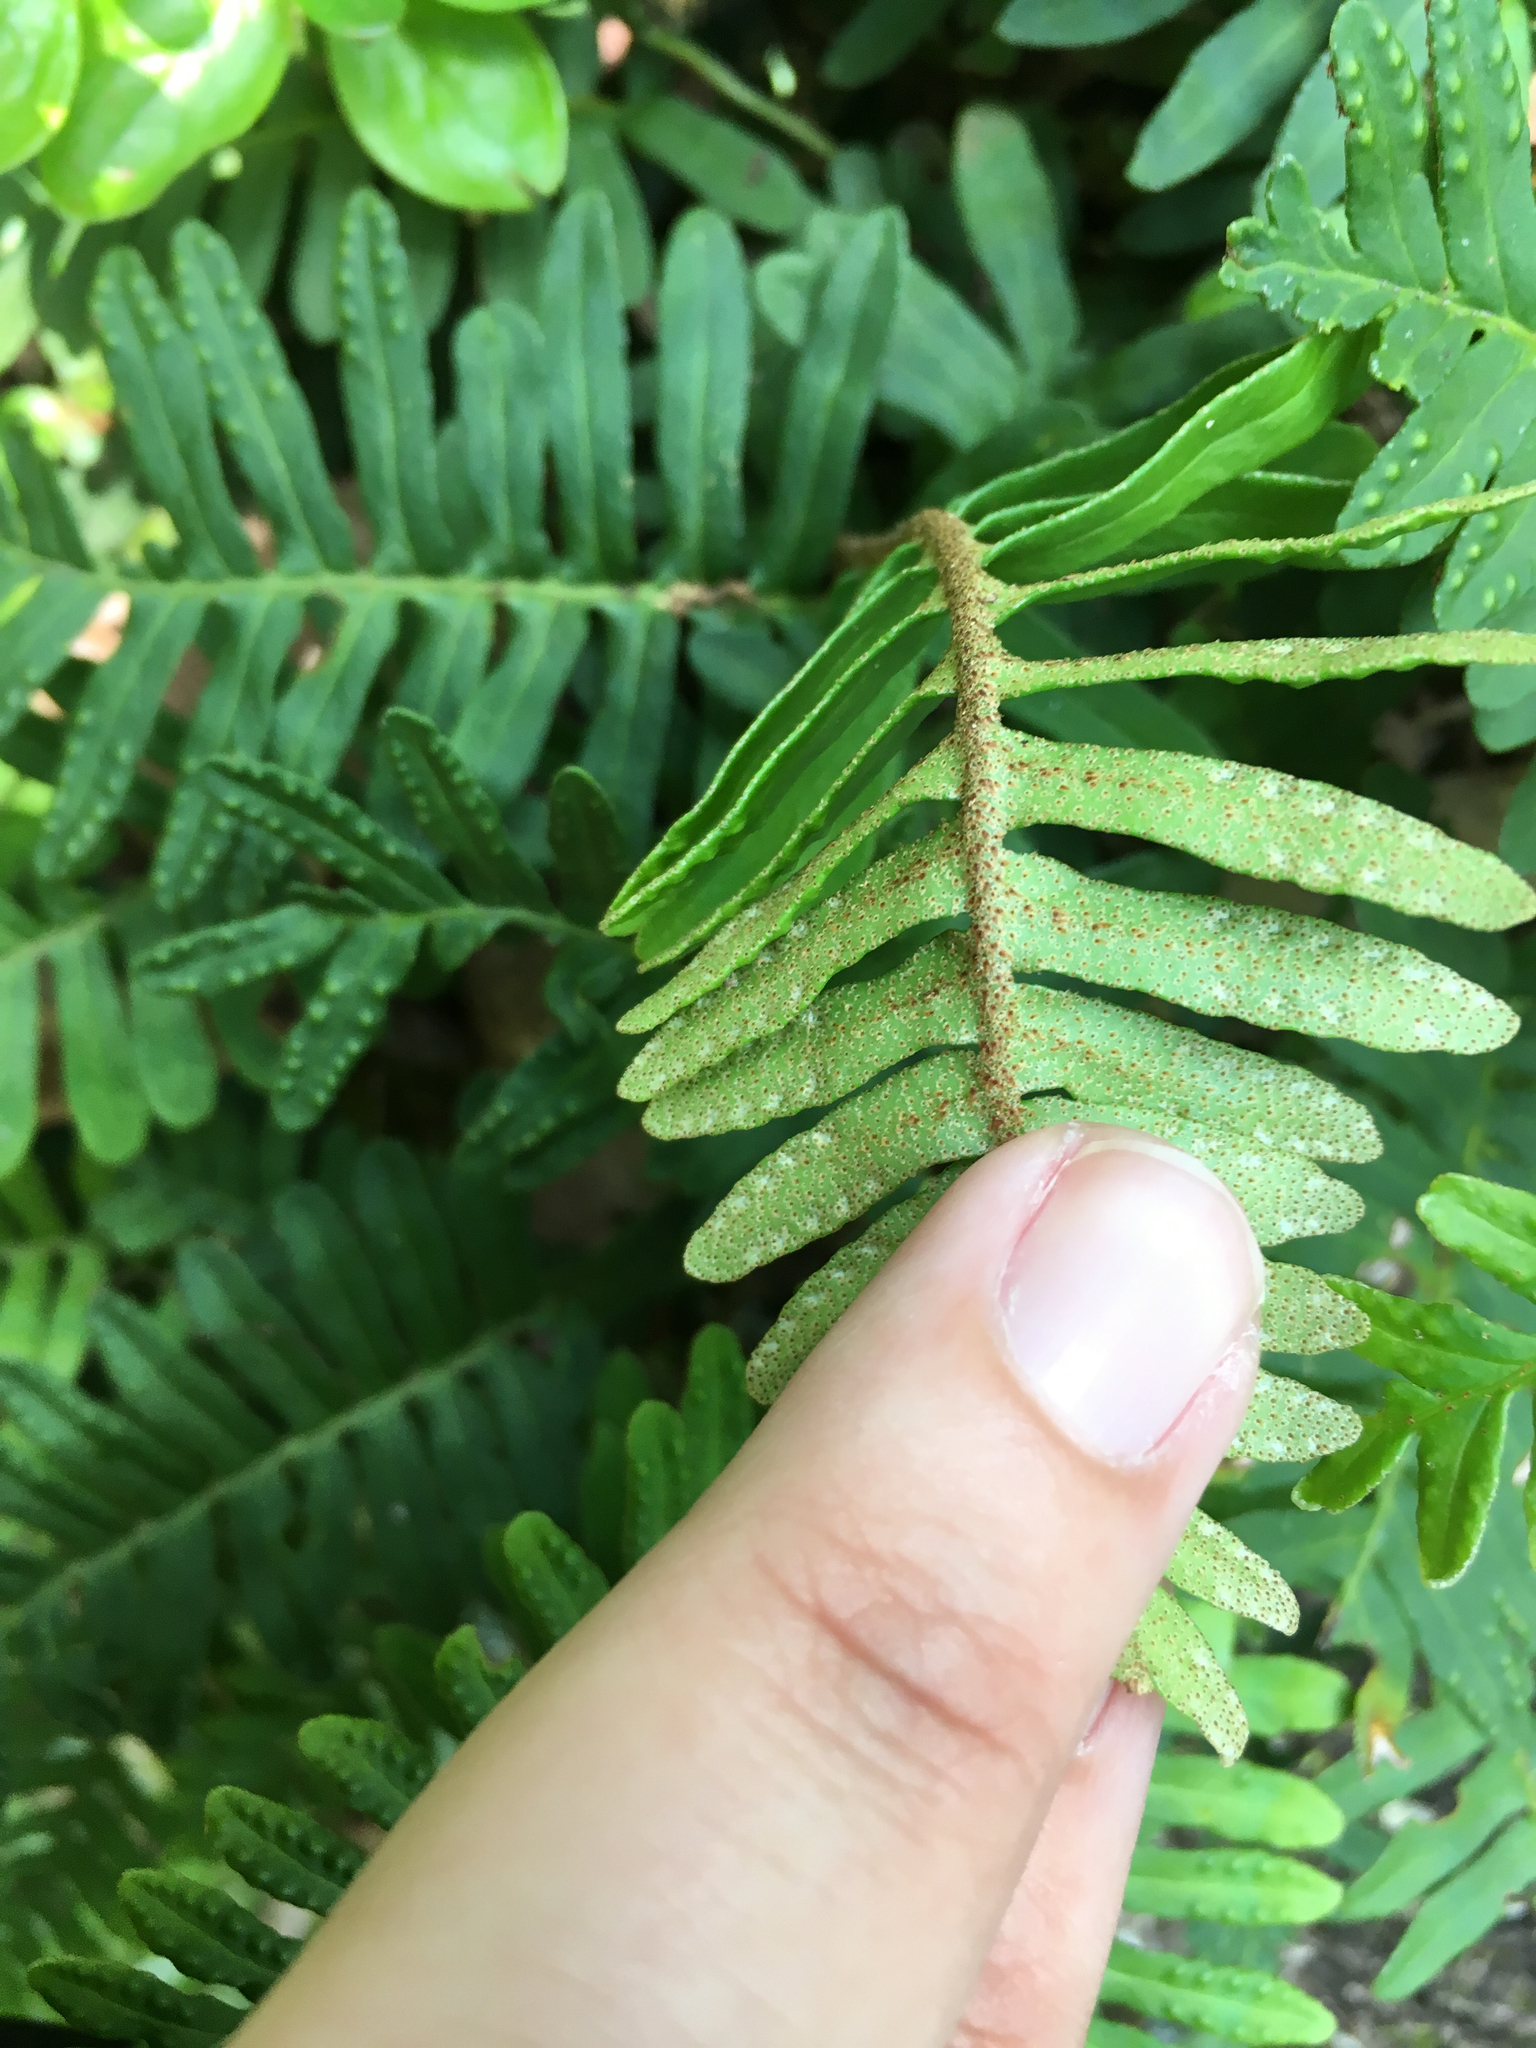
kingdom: Plantae
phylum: Tracheophyta
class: Polypodiopsida
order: Polypodiales
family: Polypodiaceae
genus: Pleopeltis
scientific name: Pleopeltis michauxiana
